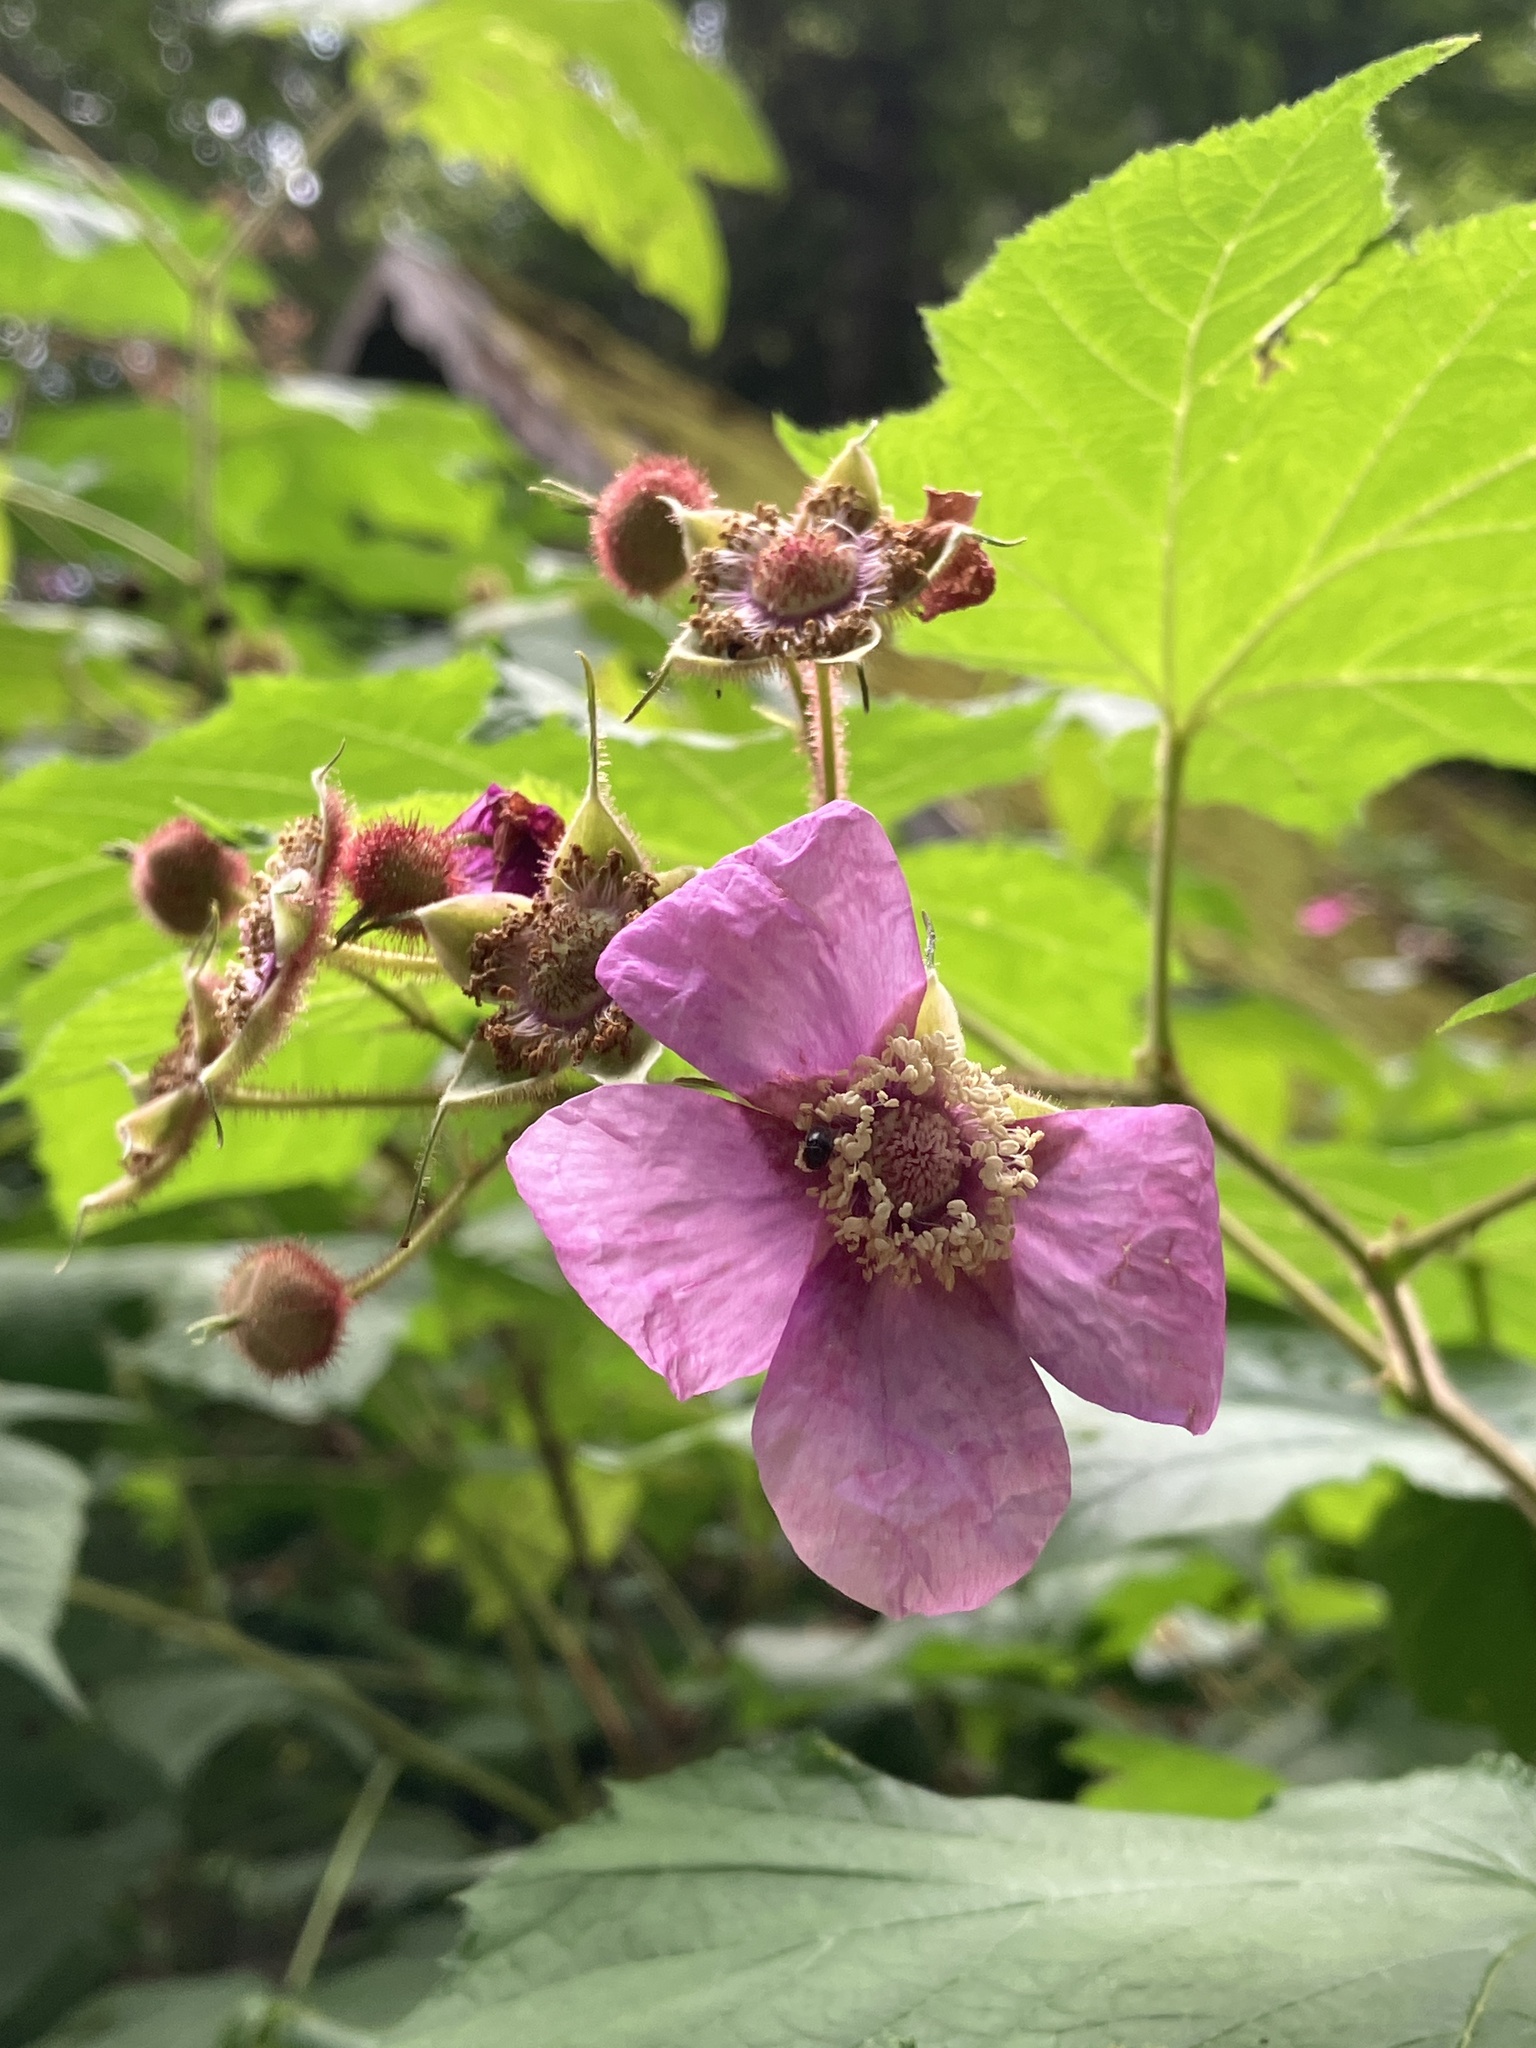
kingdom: Plantae
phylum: Tracheophyta
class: Magnoliopsida
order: Rosales
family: Rosaceae
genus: Rubus
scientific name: Rubus odoratus
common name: Purple-flowered raspberry
